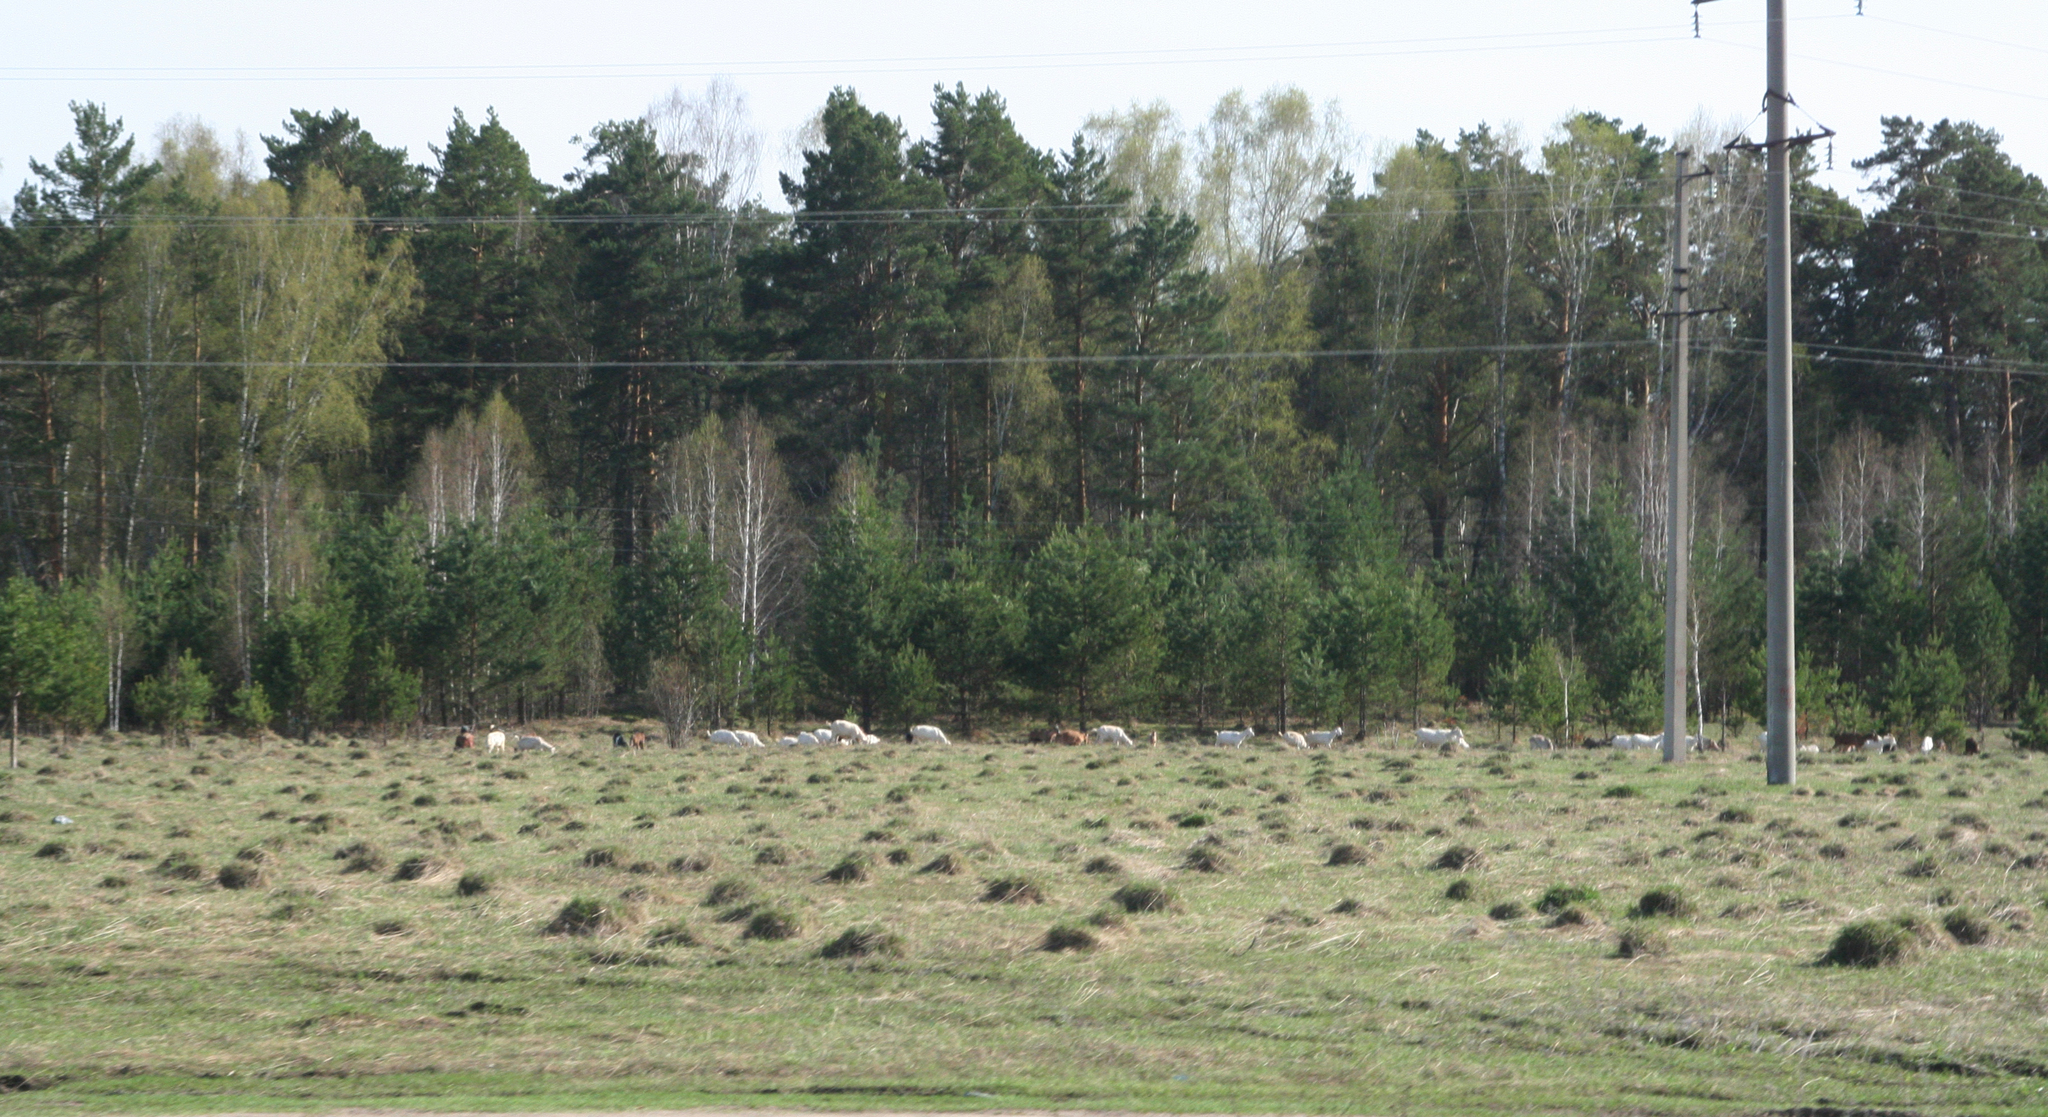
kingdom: Animalia
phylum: Arthropoda
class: Insecta
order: Hymenoptera
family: Formicidae
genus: Lasius
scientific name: Lasius niger
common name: Small black ant
